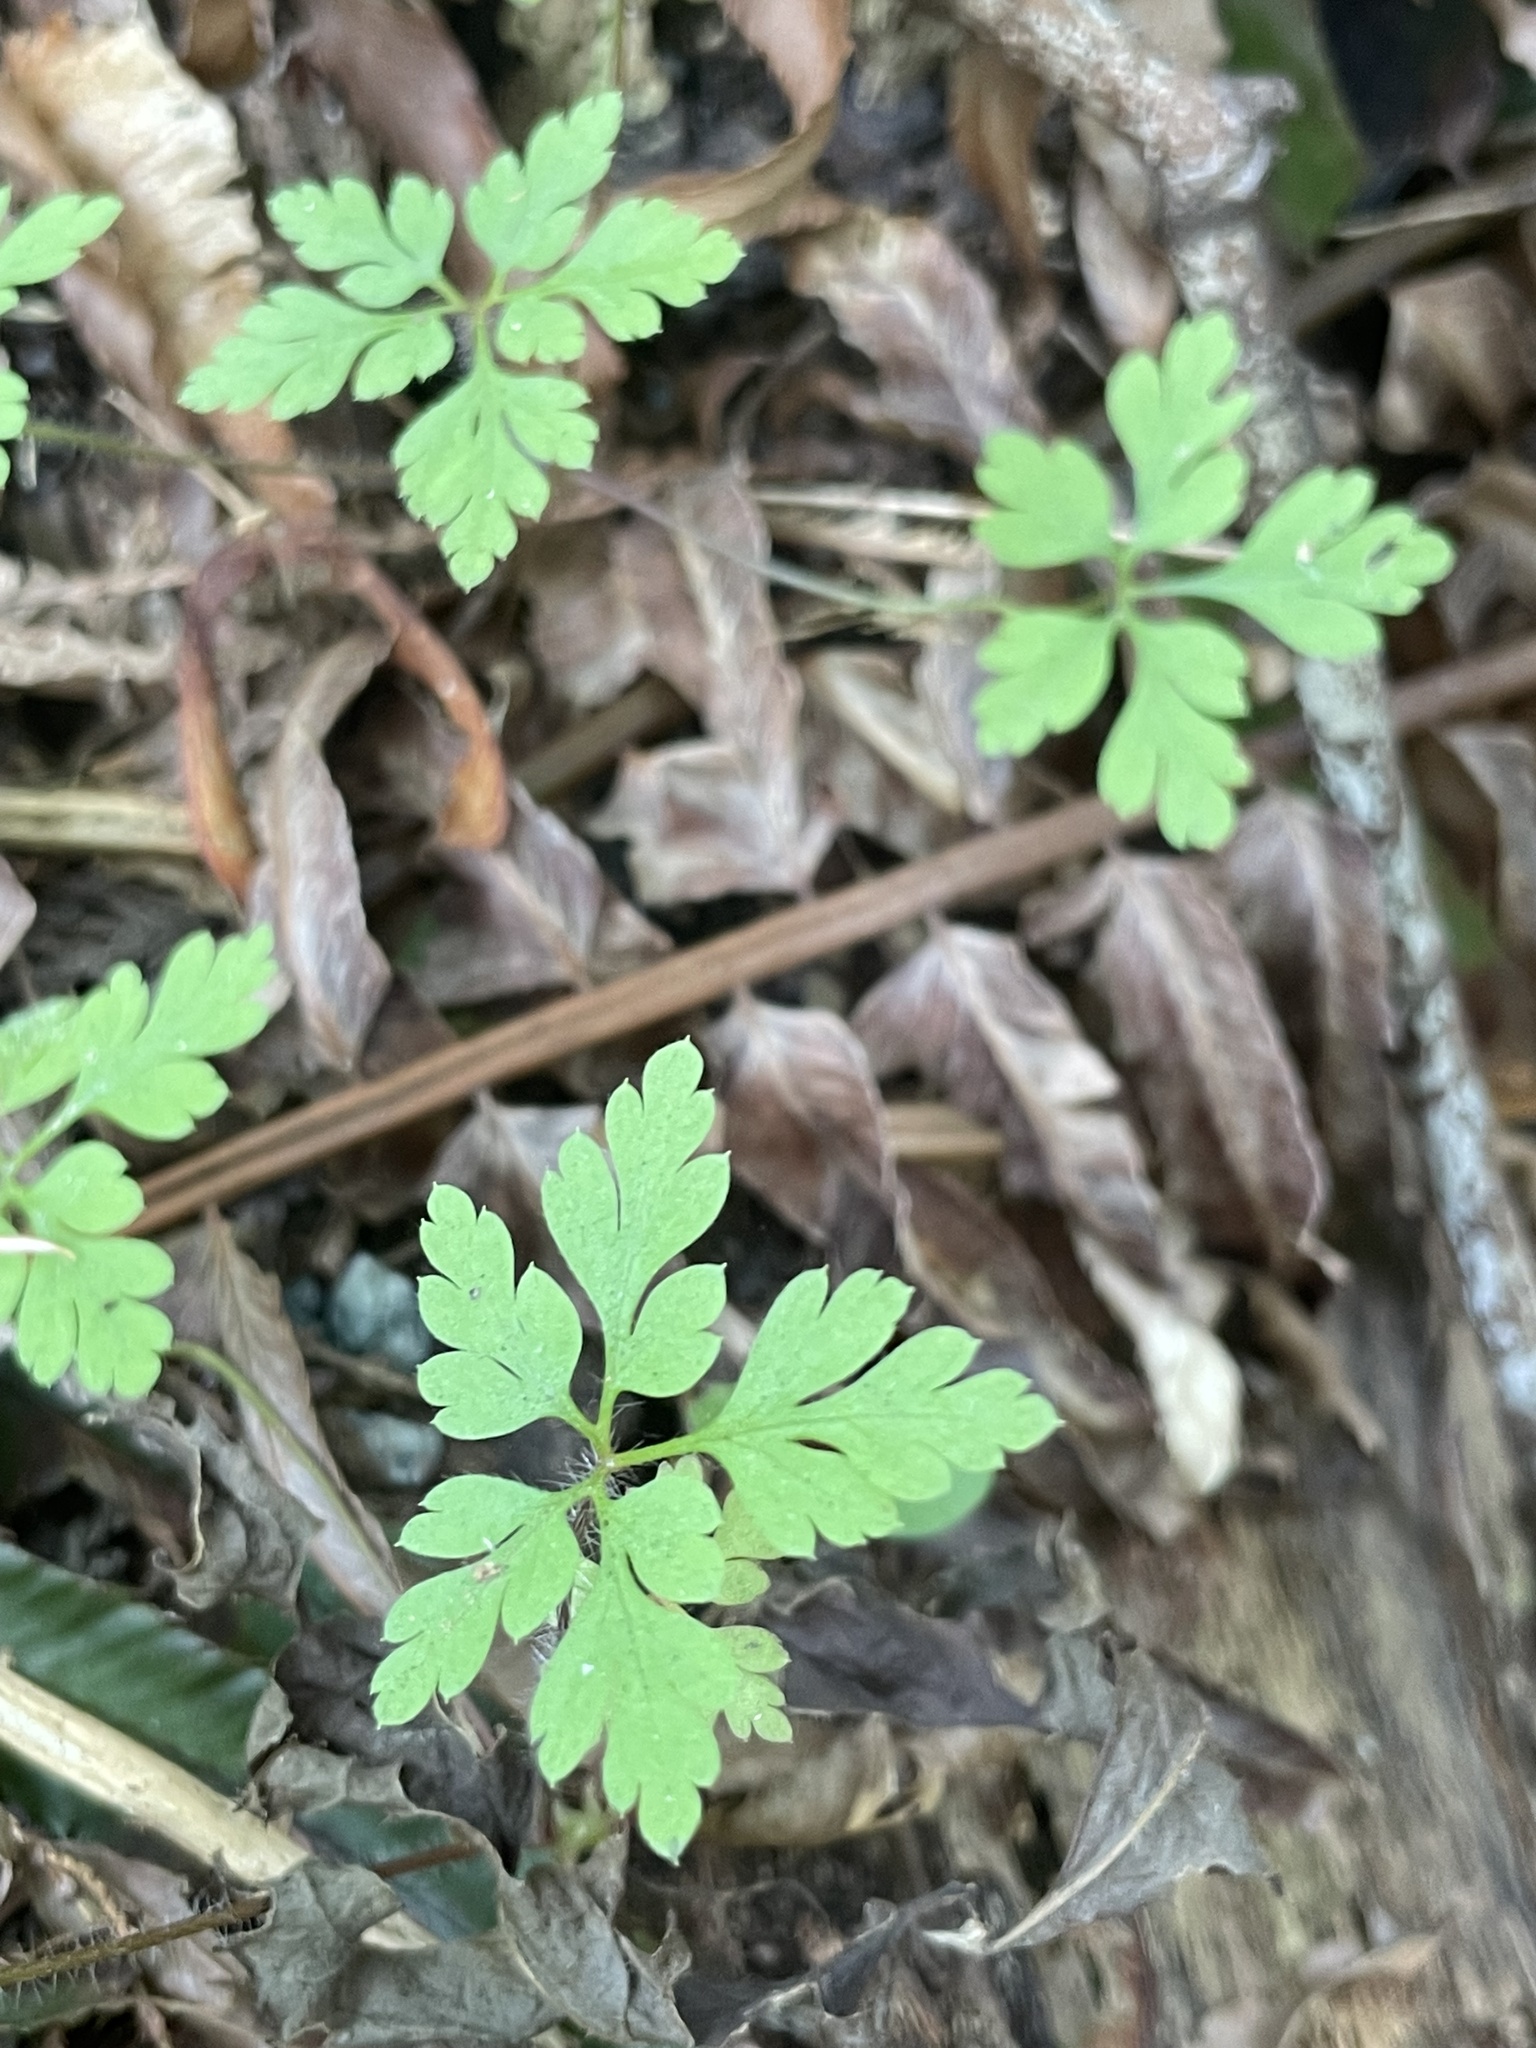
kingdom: Plantae
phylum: Tracheophyta
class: Magnoliopsida
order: Geraniales
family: Geraniaceae
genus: Geranium
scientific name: Geranium robertianum
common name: Herb-robert
